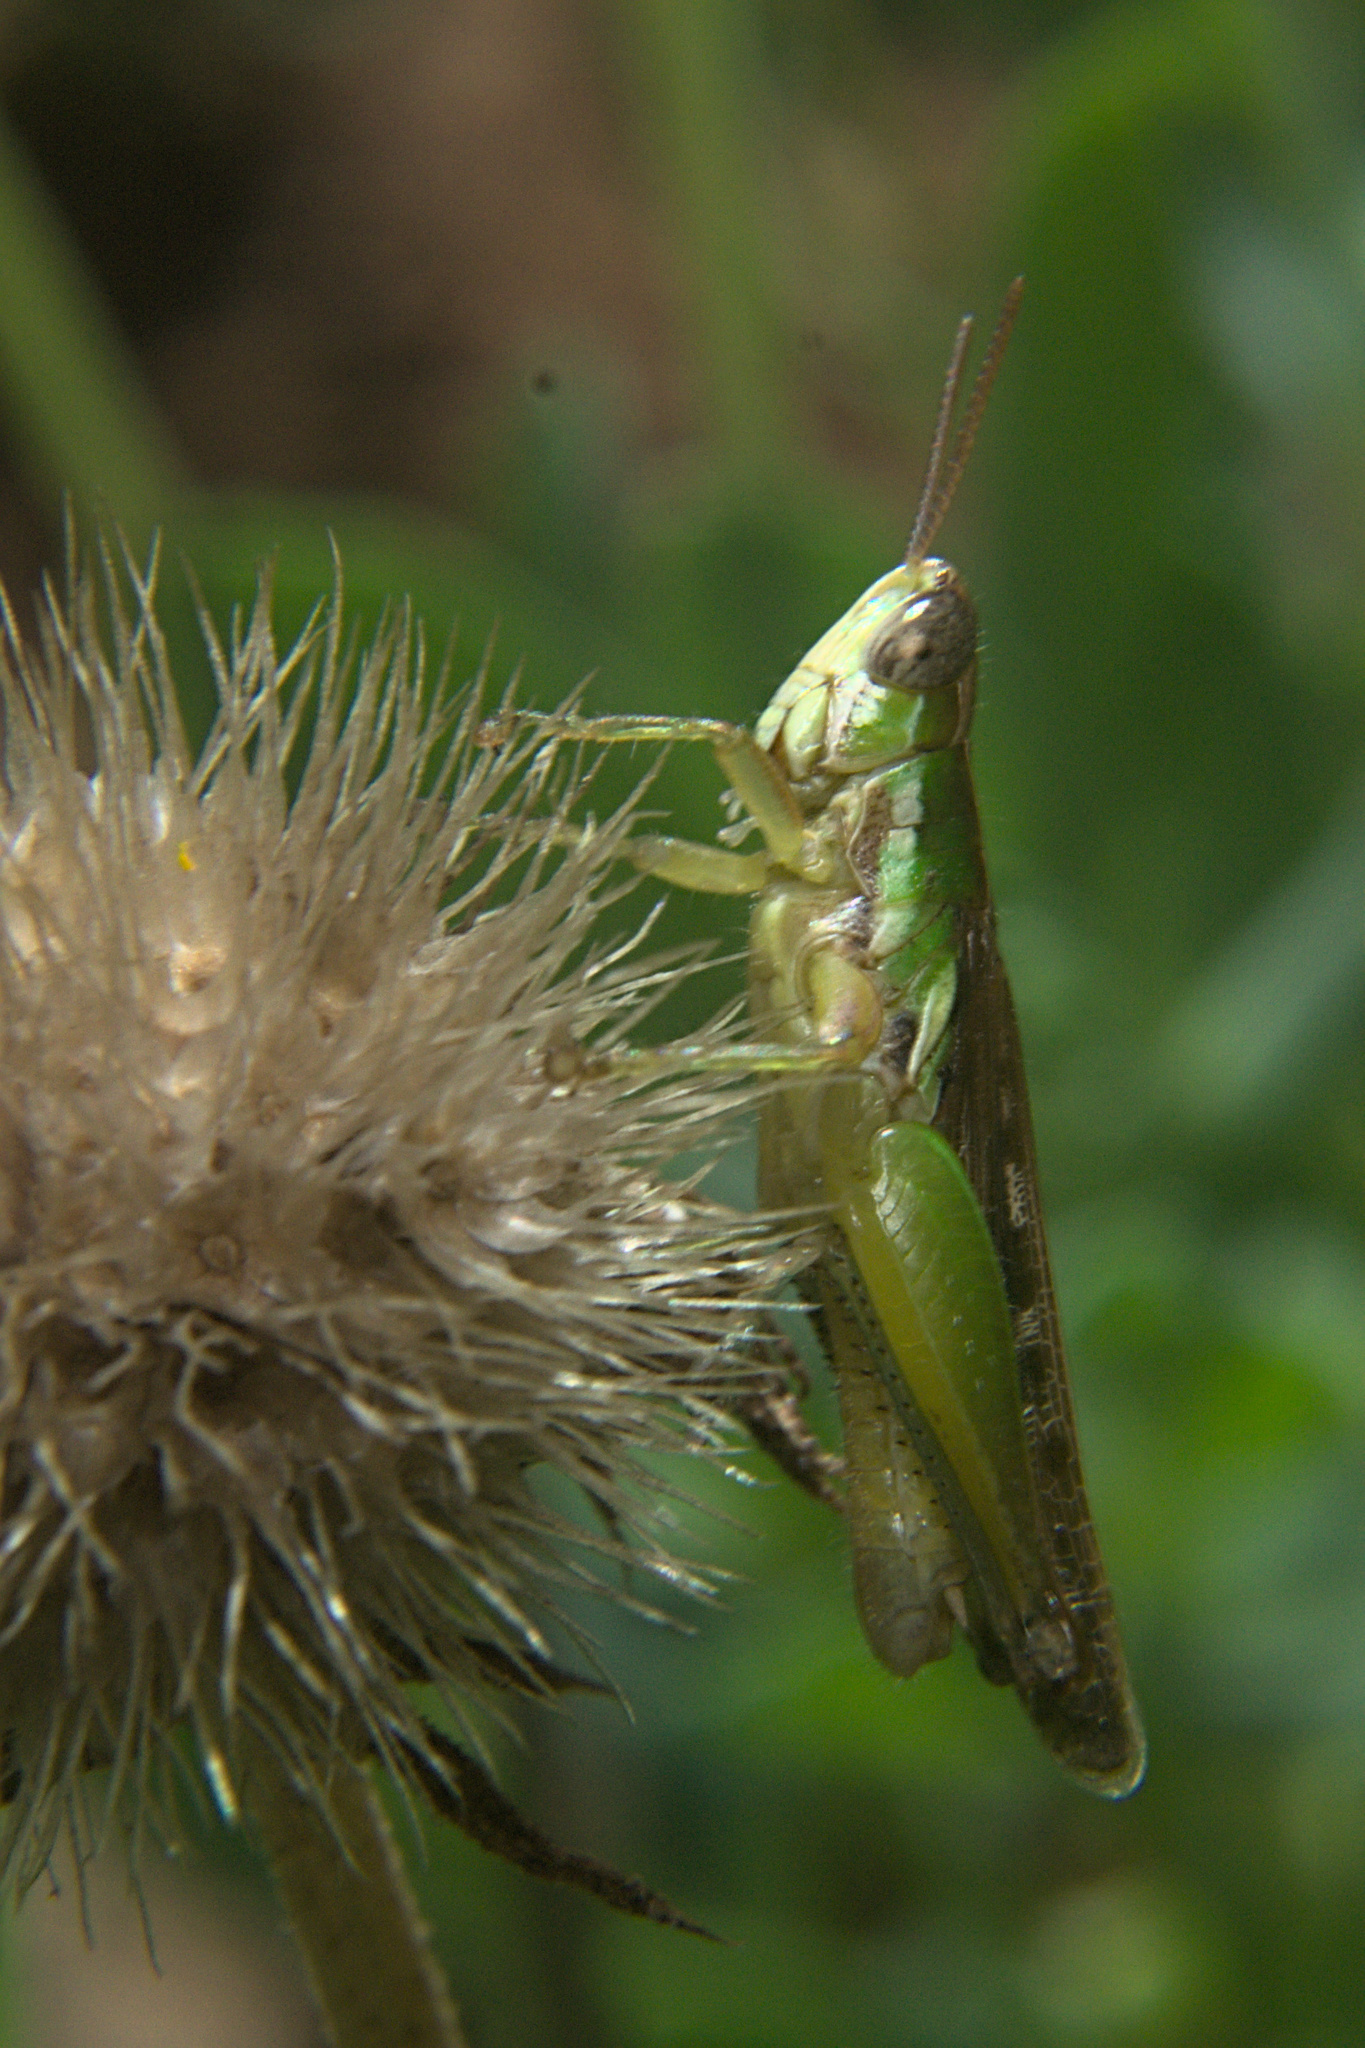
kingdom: Animalia
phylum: Arthropoda
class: Insecta
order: Orthoptera
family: Acrididae
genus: Spathosternum
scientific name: Spathosternum prasiniferum
